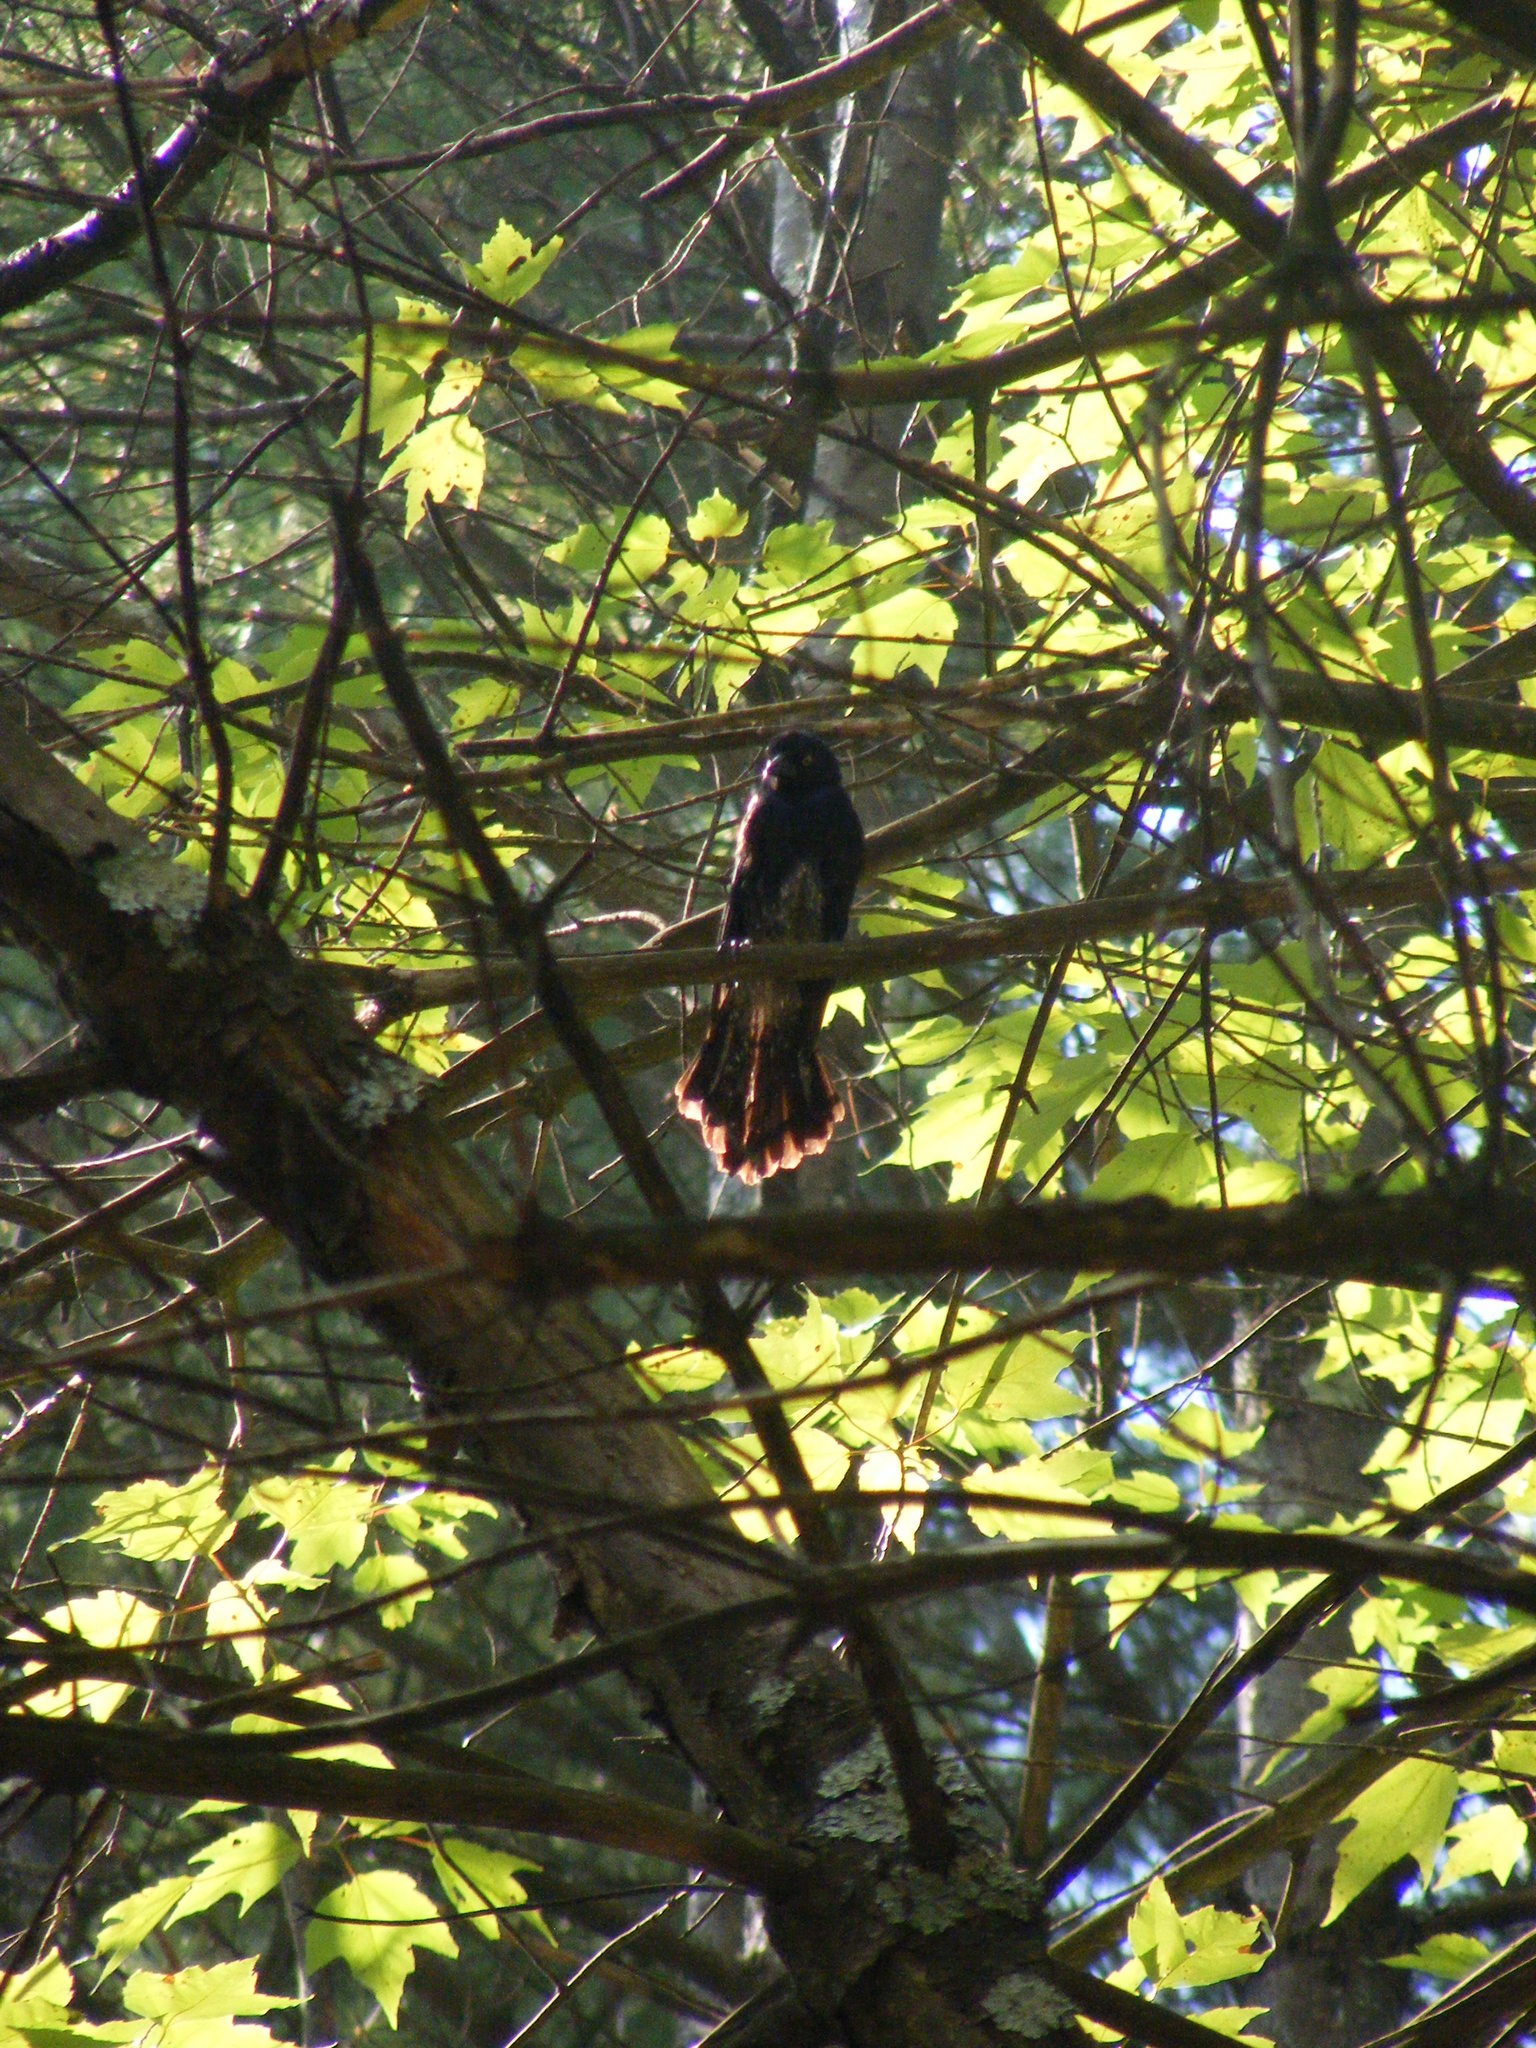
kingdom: Animalia
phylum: Chordata
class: Aves
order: Passeriformes
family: Icteridae
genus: Quiscalus
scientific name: Quiscalus quiscula
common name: Common grackle
